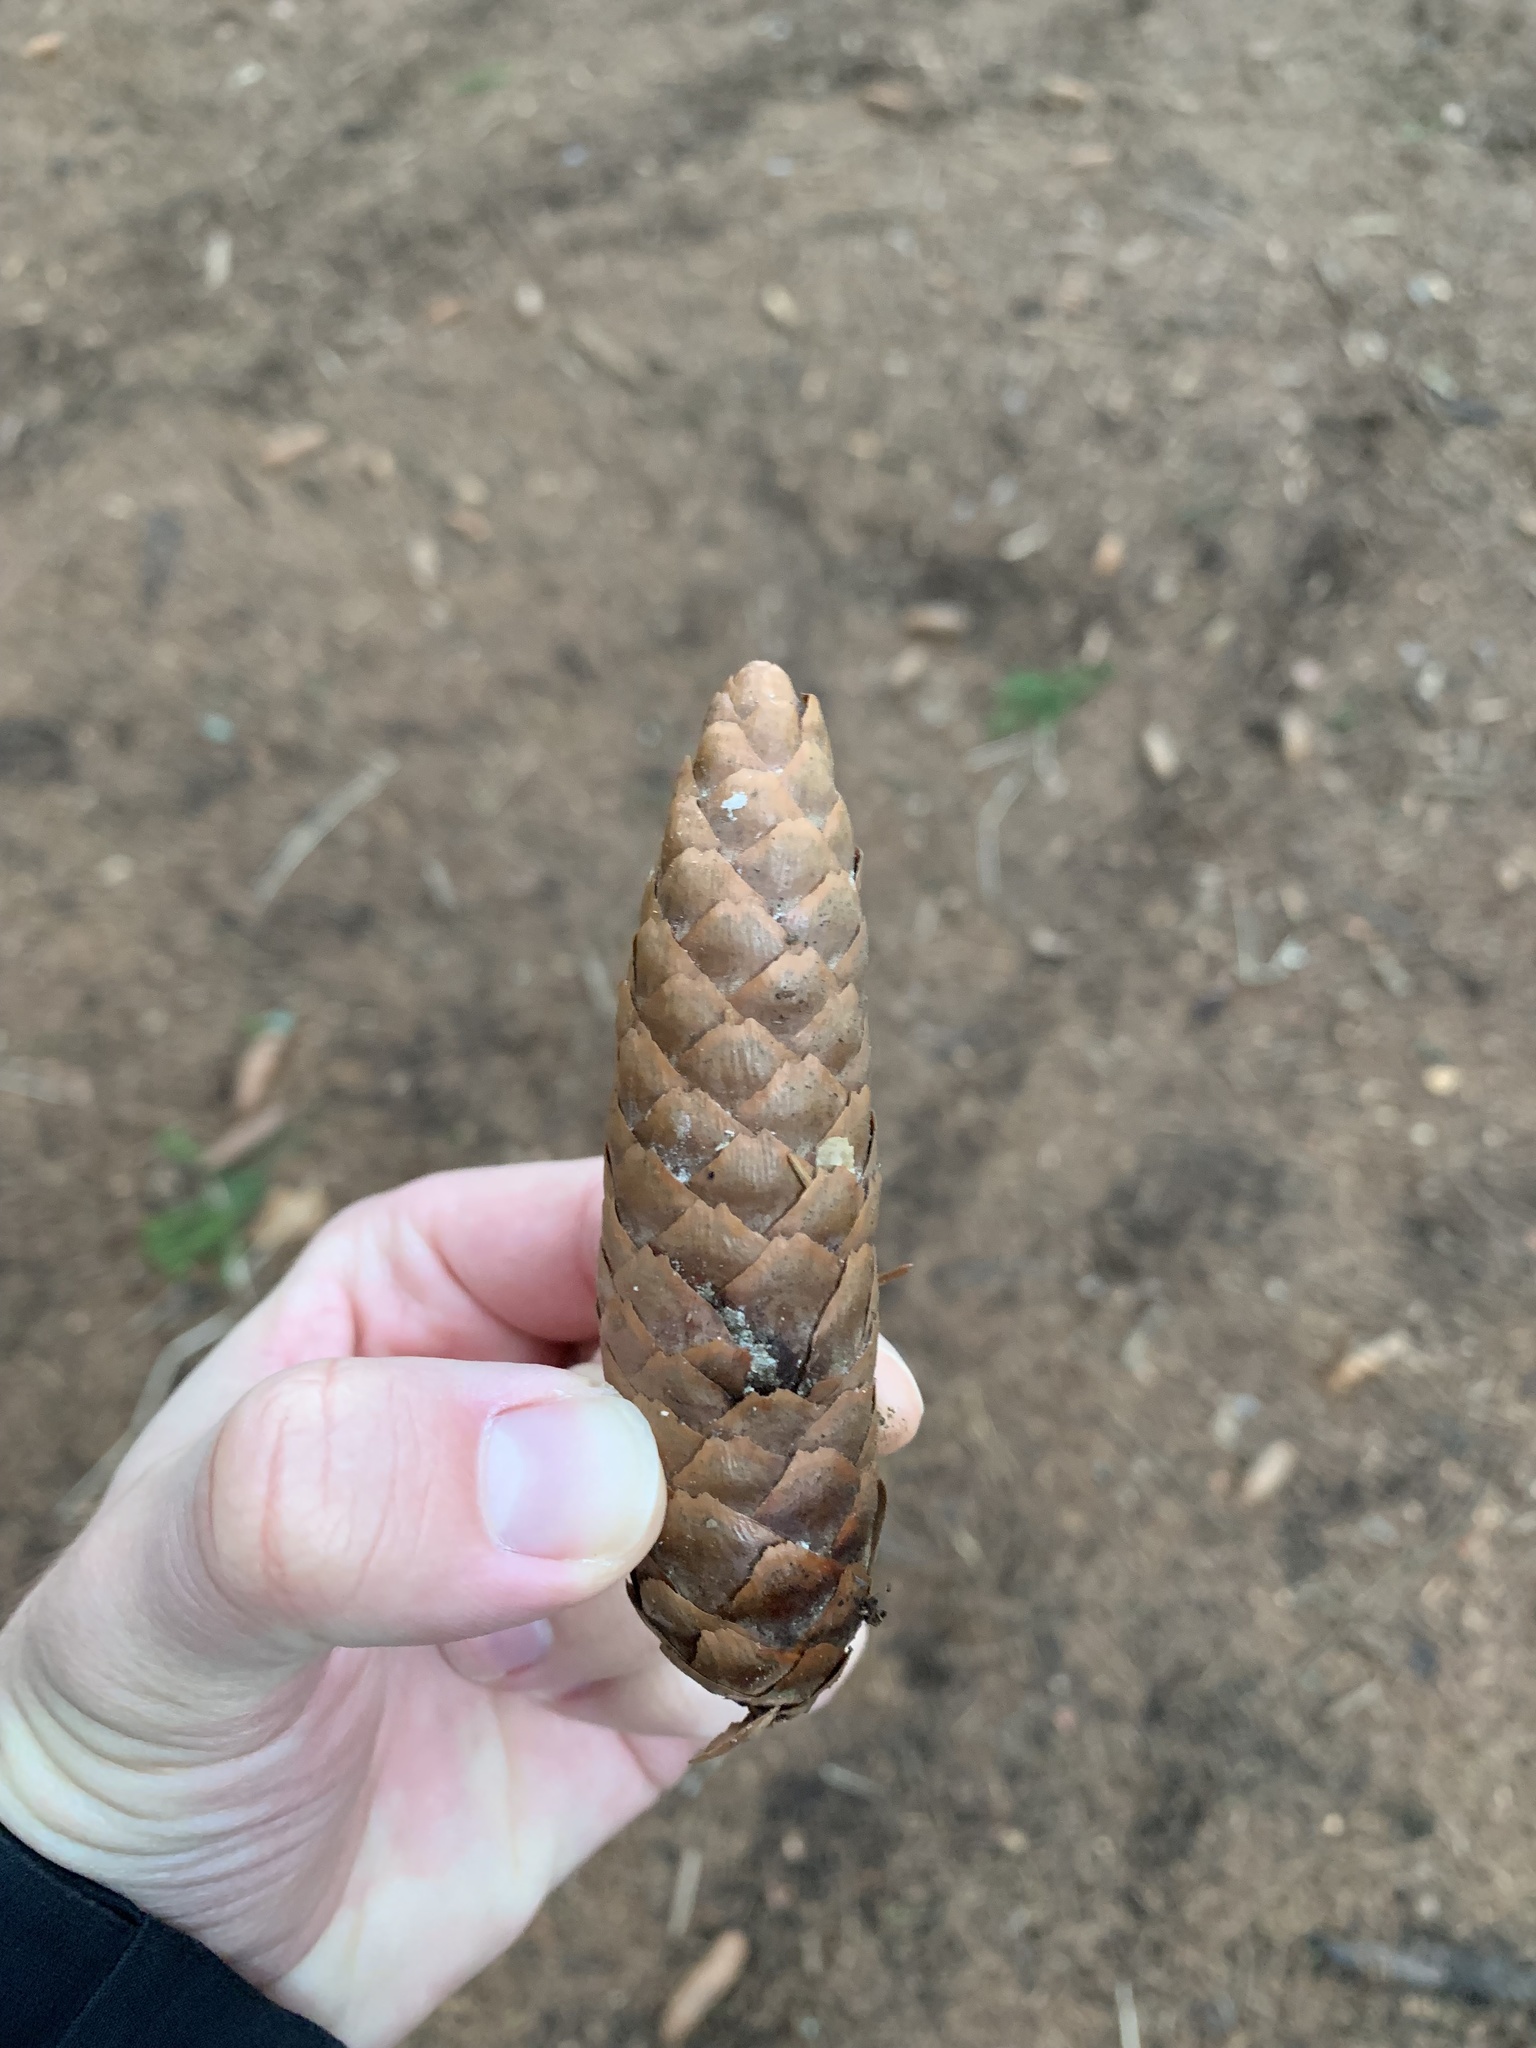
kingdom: Plantae
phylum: Tracheophyta
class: Pinopsida
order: Pinales
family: Pinaceae
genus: Picea
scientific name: Picea abies
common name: Norway spruce
